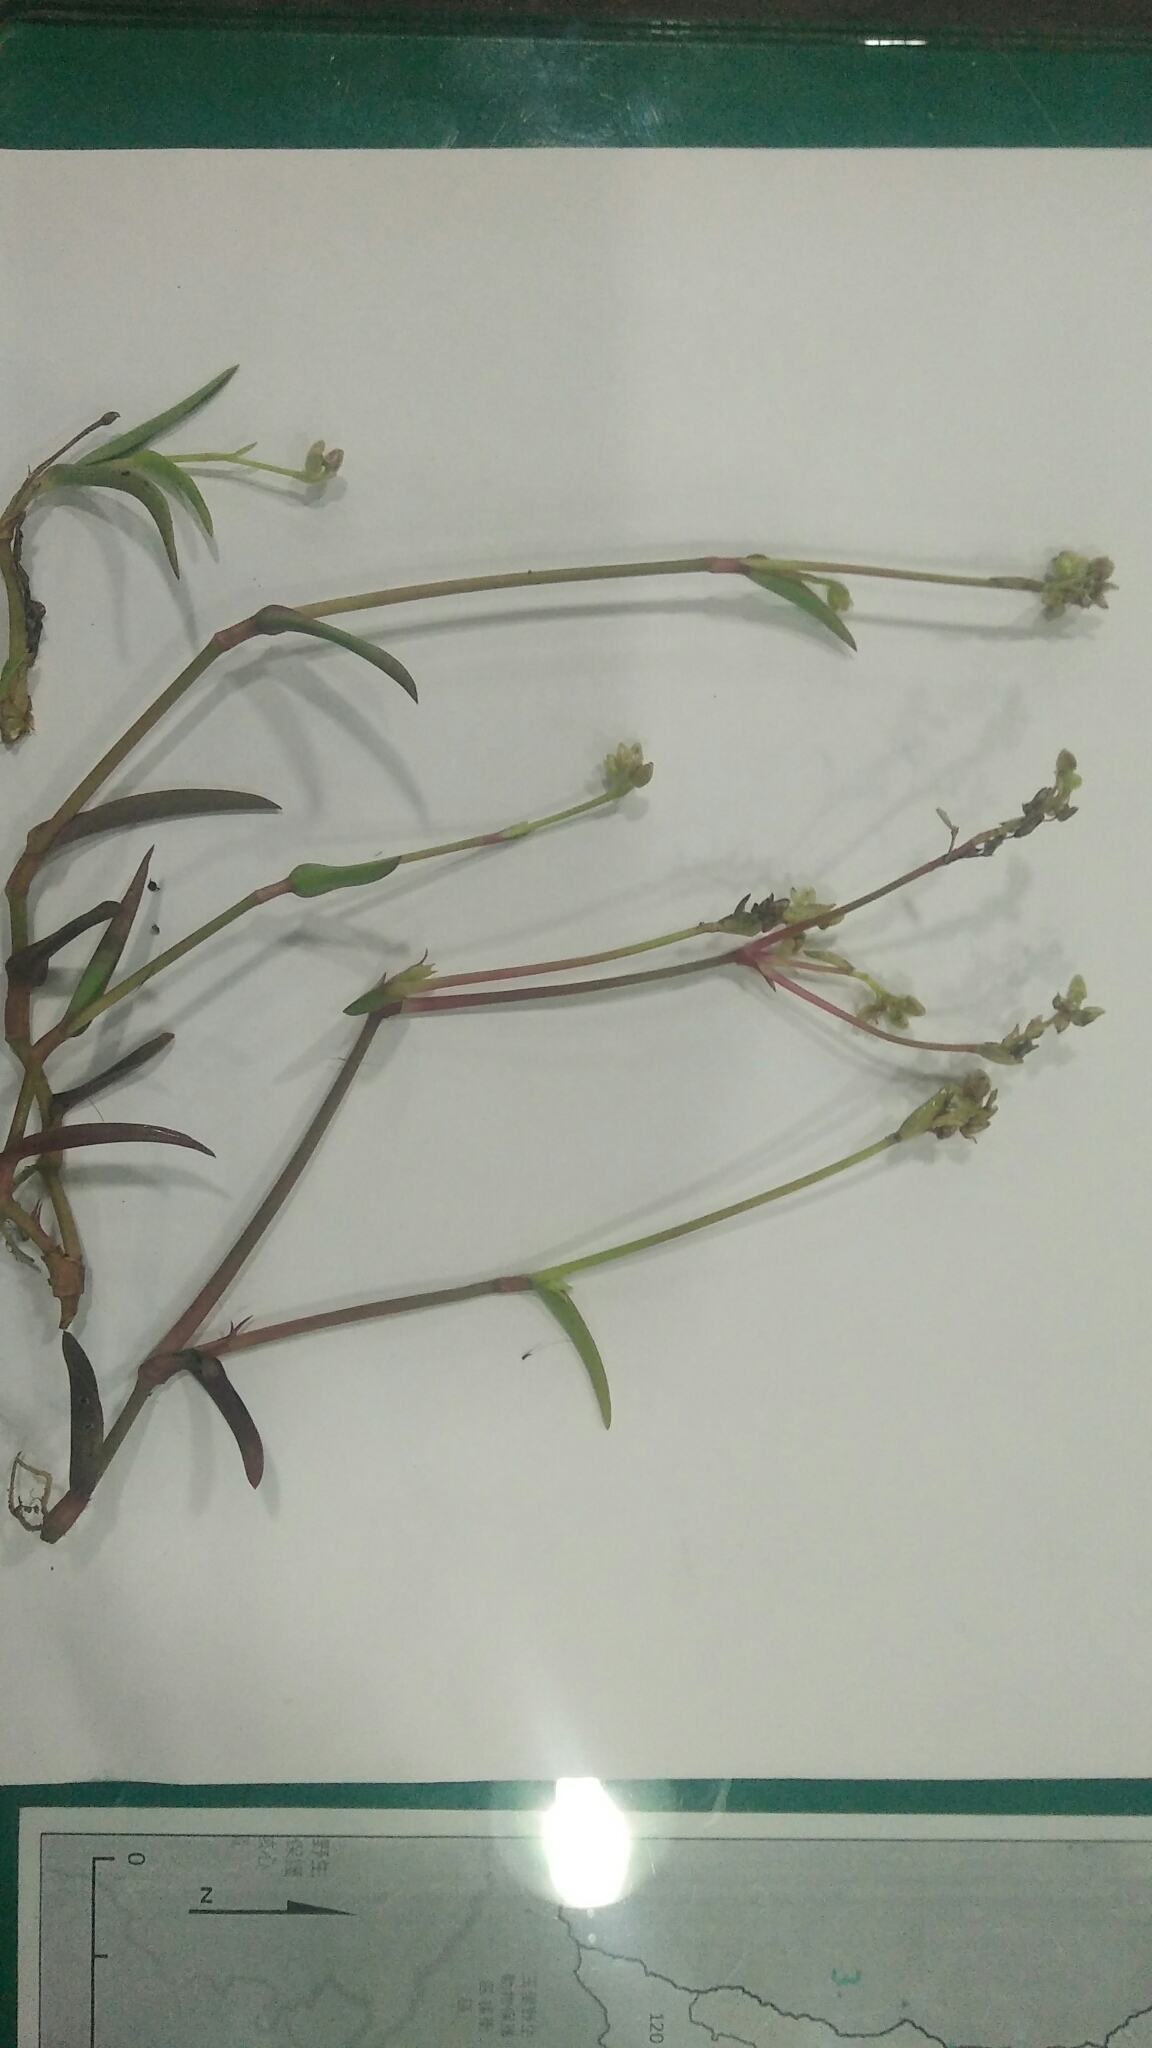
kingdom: Plantae
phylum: Tracheophyta
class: Liliopsida
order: Commelinales
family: Commelinaceae
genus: Murdannia
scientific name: Murdannia loriformis
